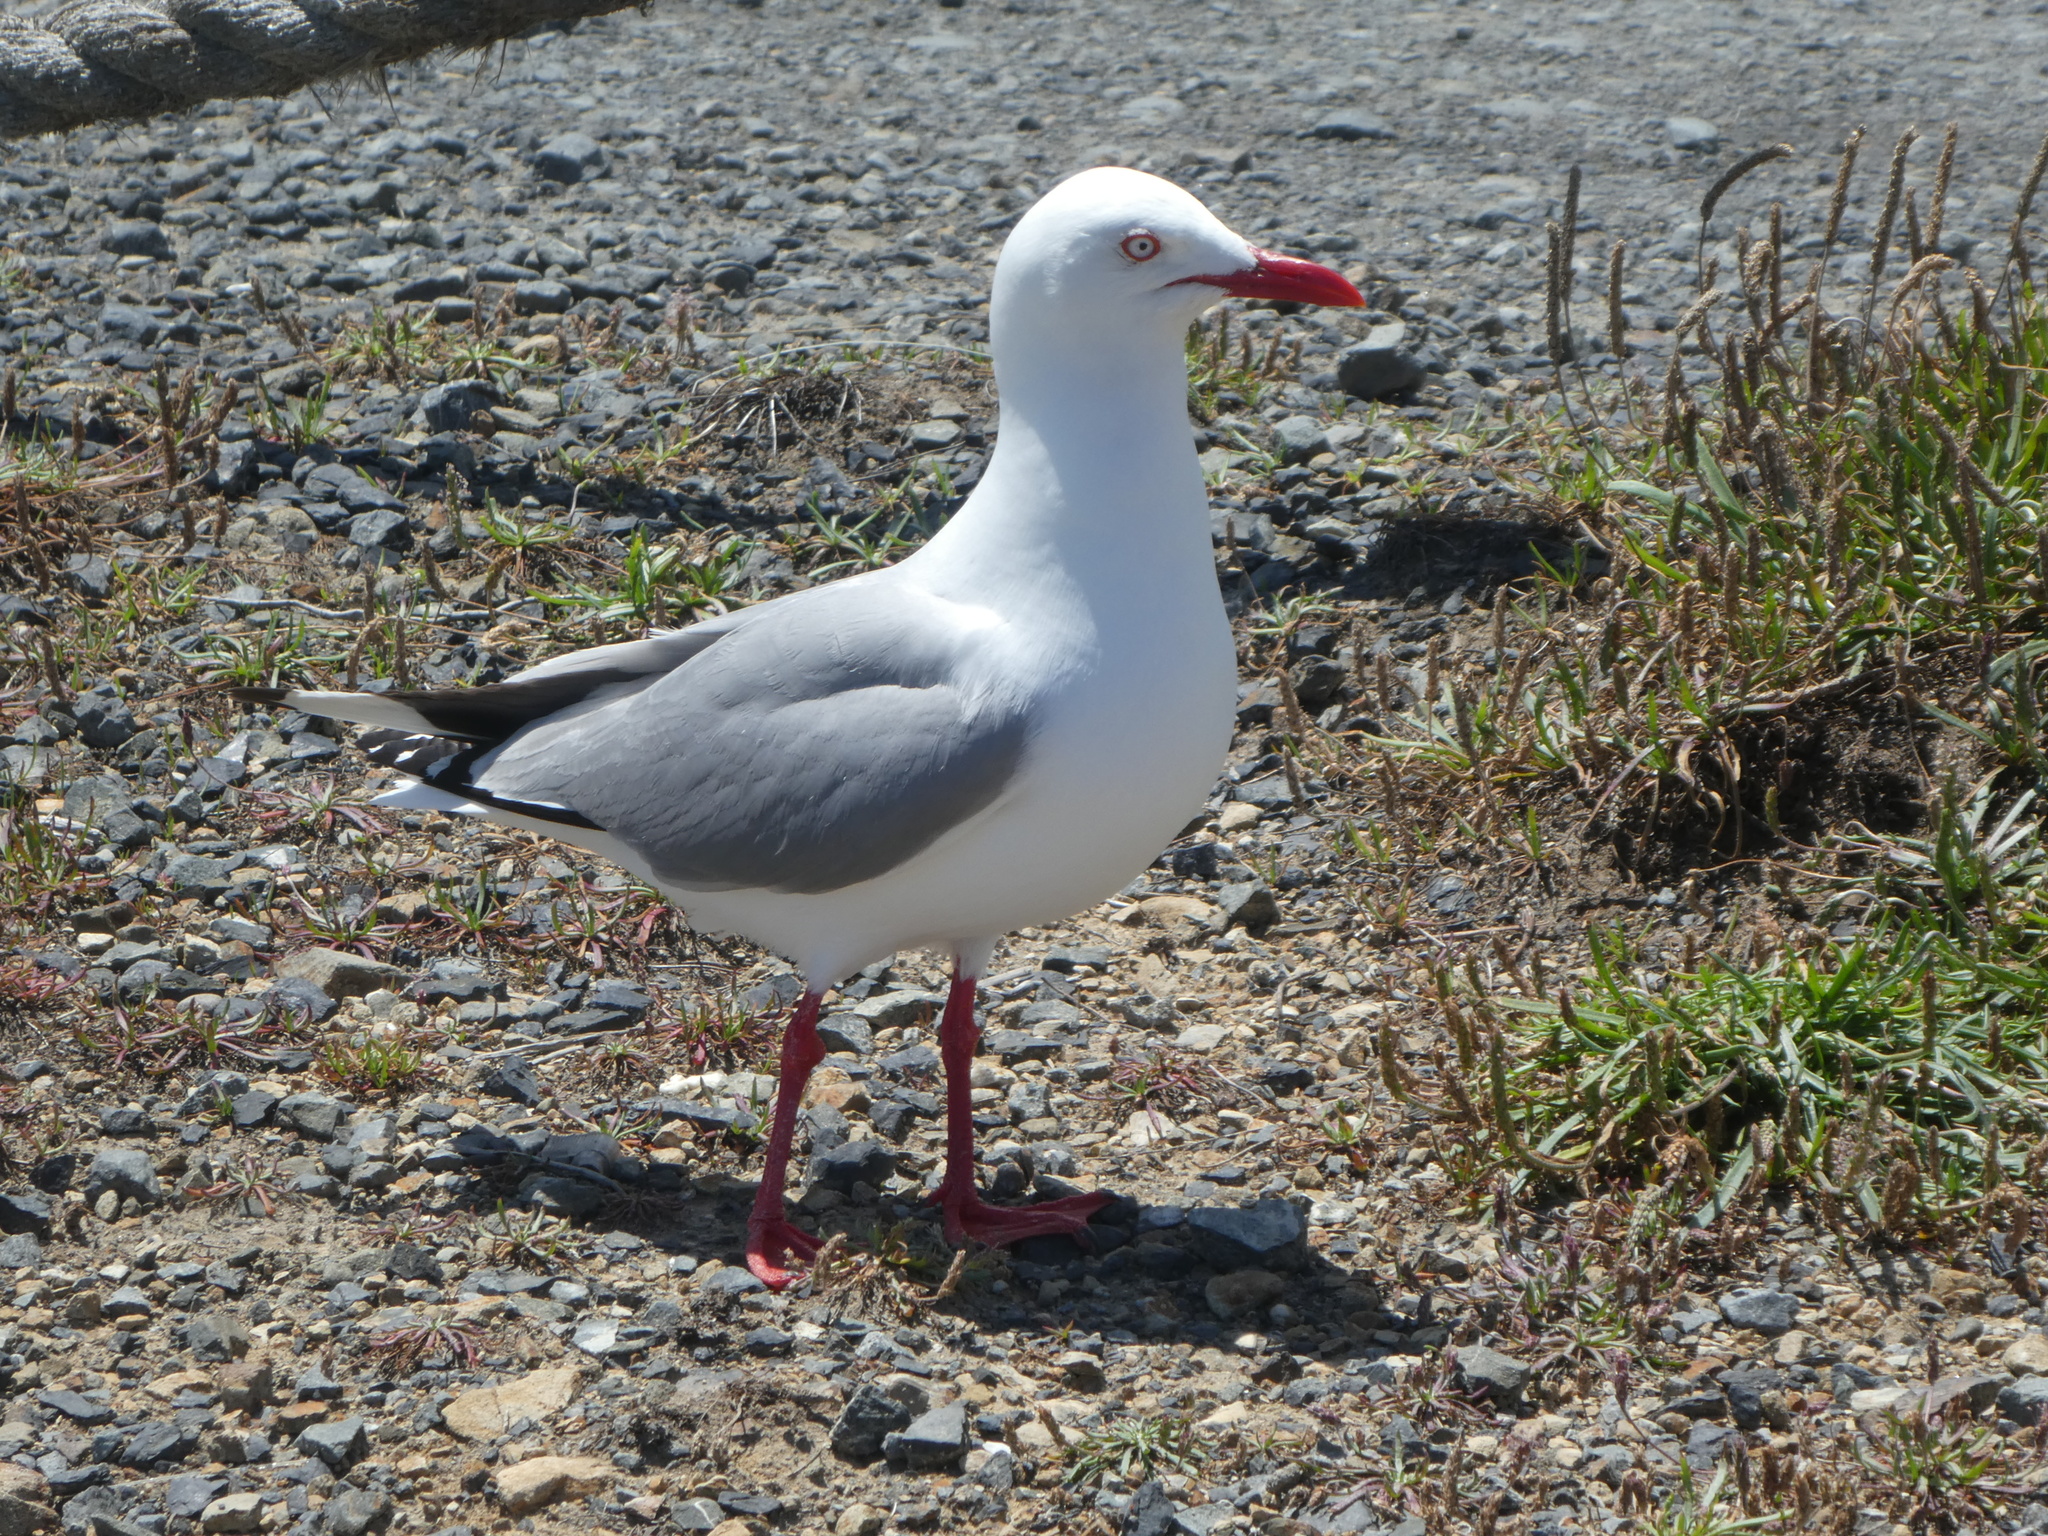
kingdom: Animalia
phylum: Chordata
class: Aves
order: Charadriiformes
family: Laridae
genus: Chroicocephalus
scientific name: Chroicocephalus novaehollandiae
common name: Silver gull
